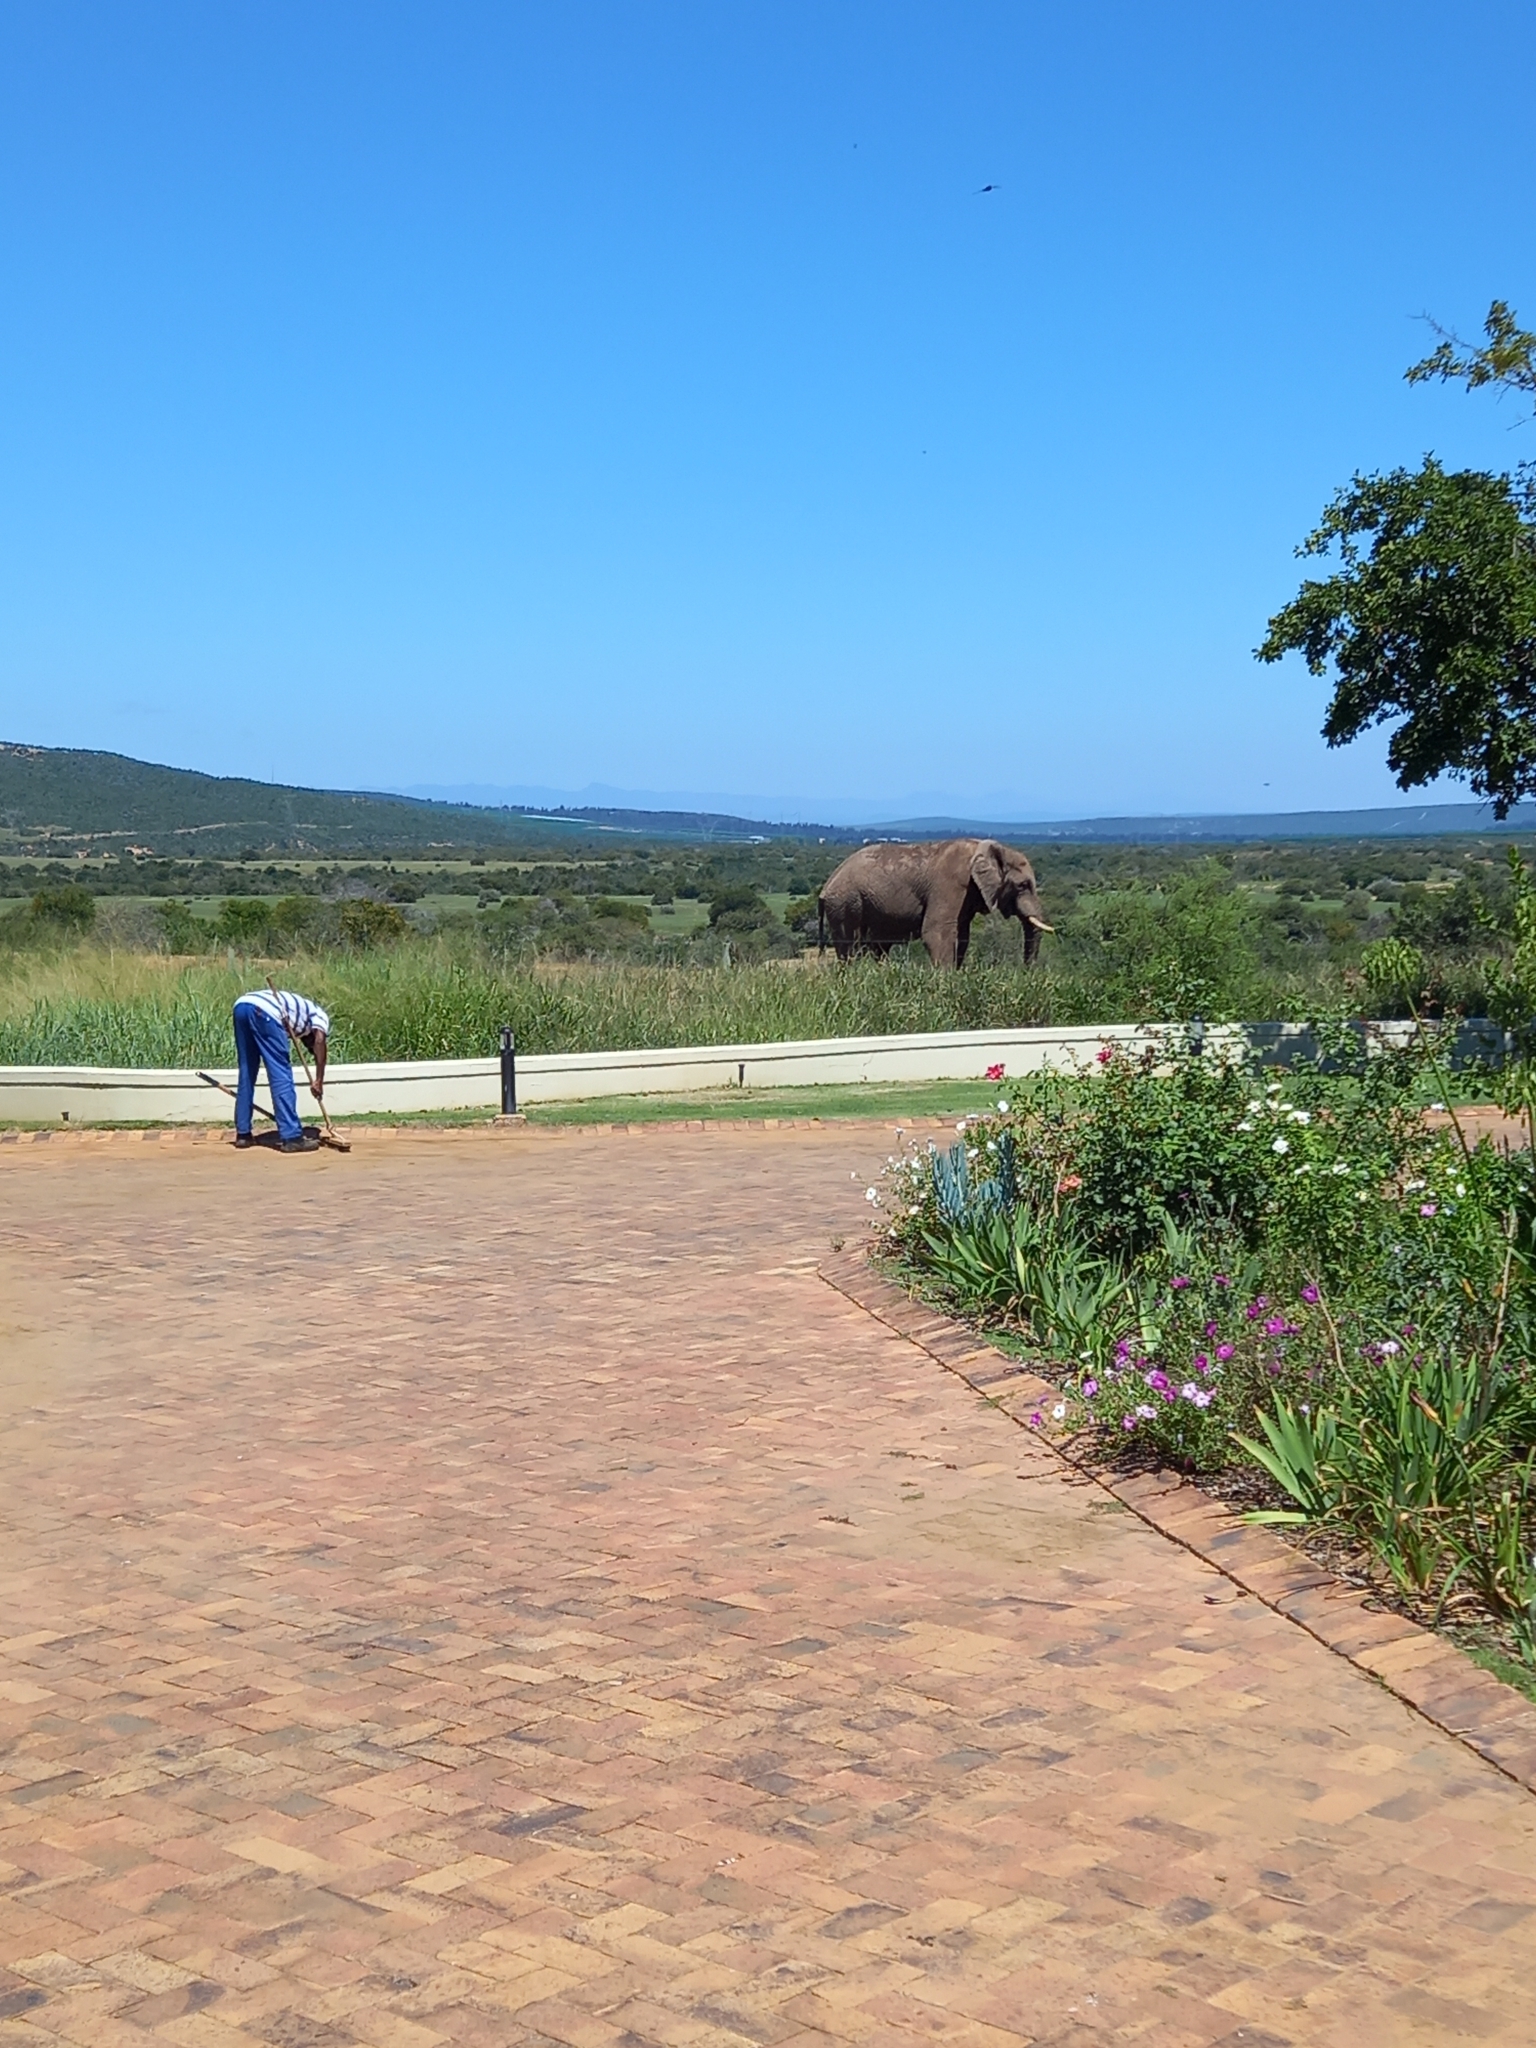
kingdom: Animalia
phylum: Chordata
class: Mammalia
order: Proboscidea
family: Elephantidae
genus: Loxodonta
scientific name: Loxodonta africana
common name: African elephant
